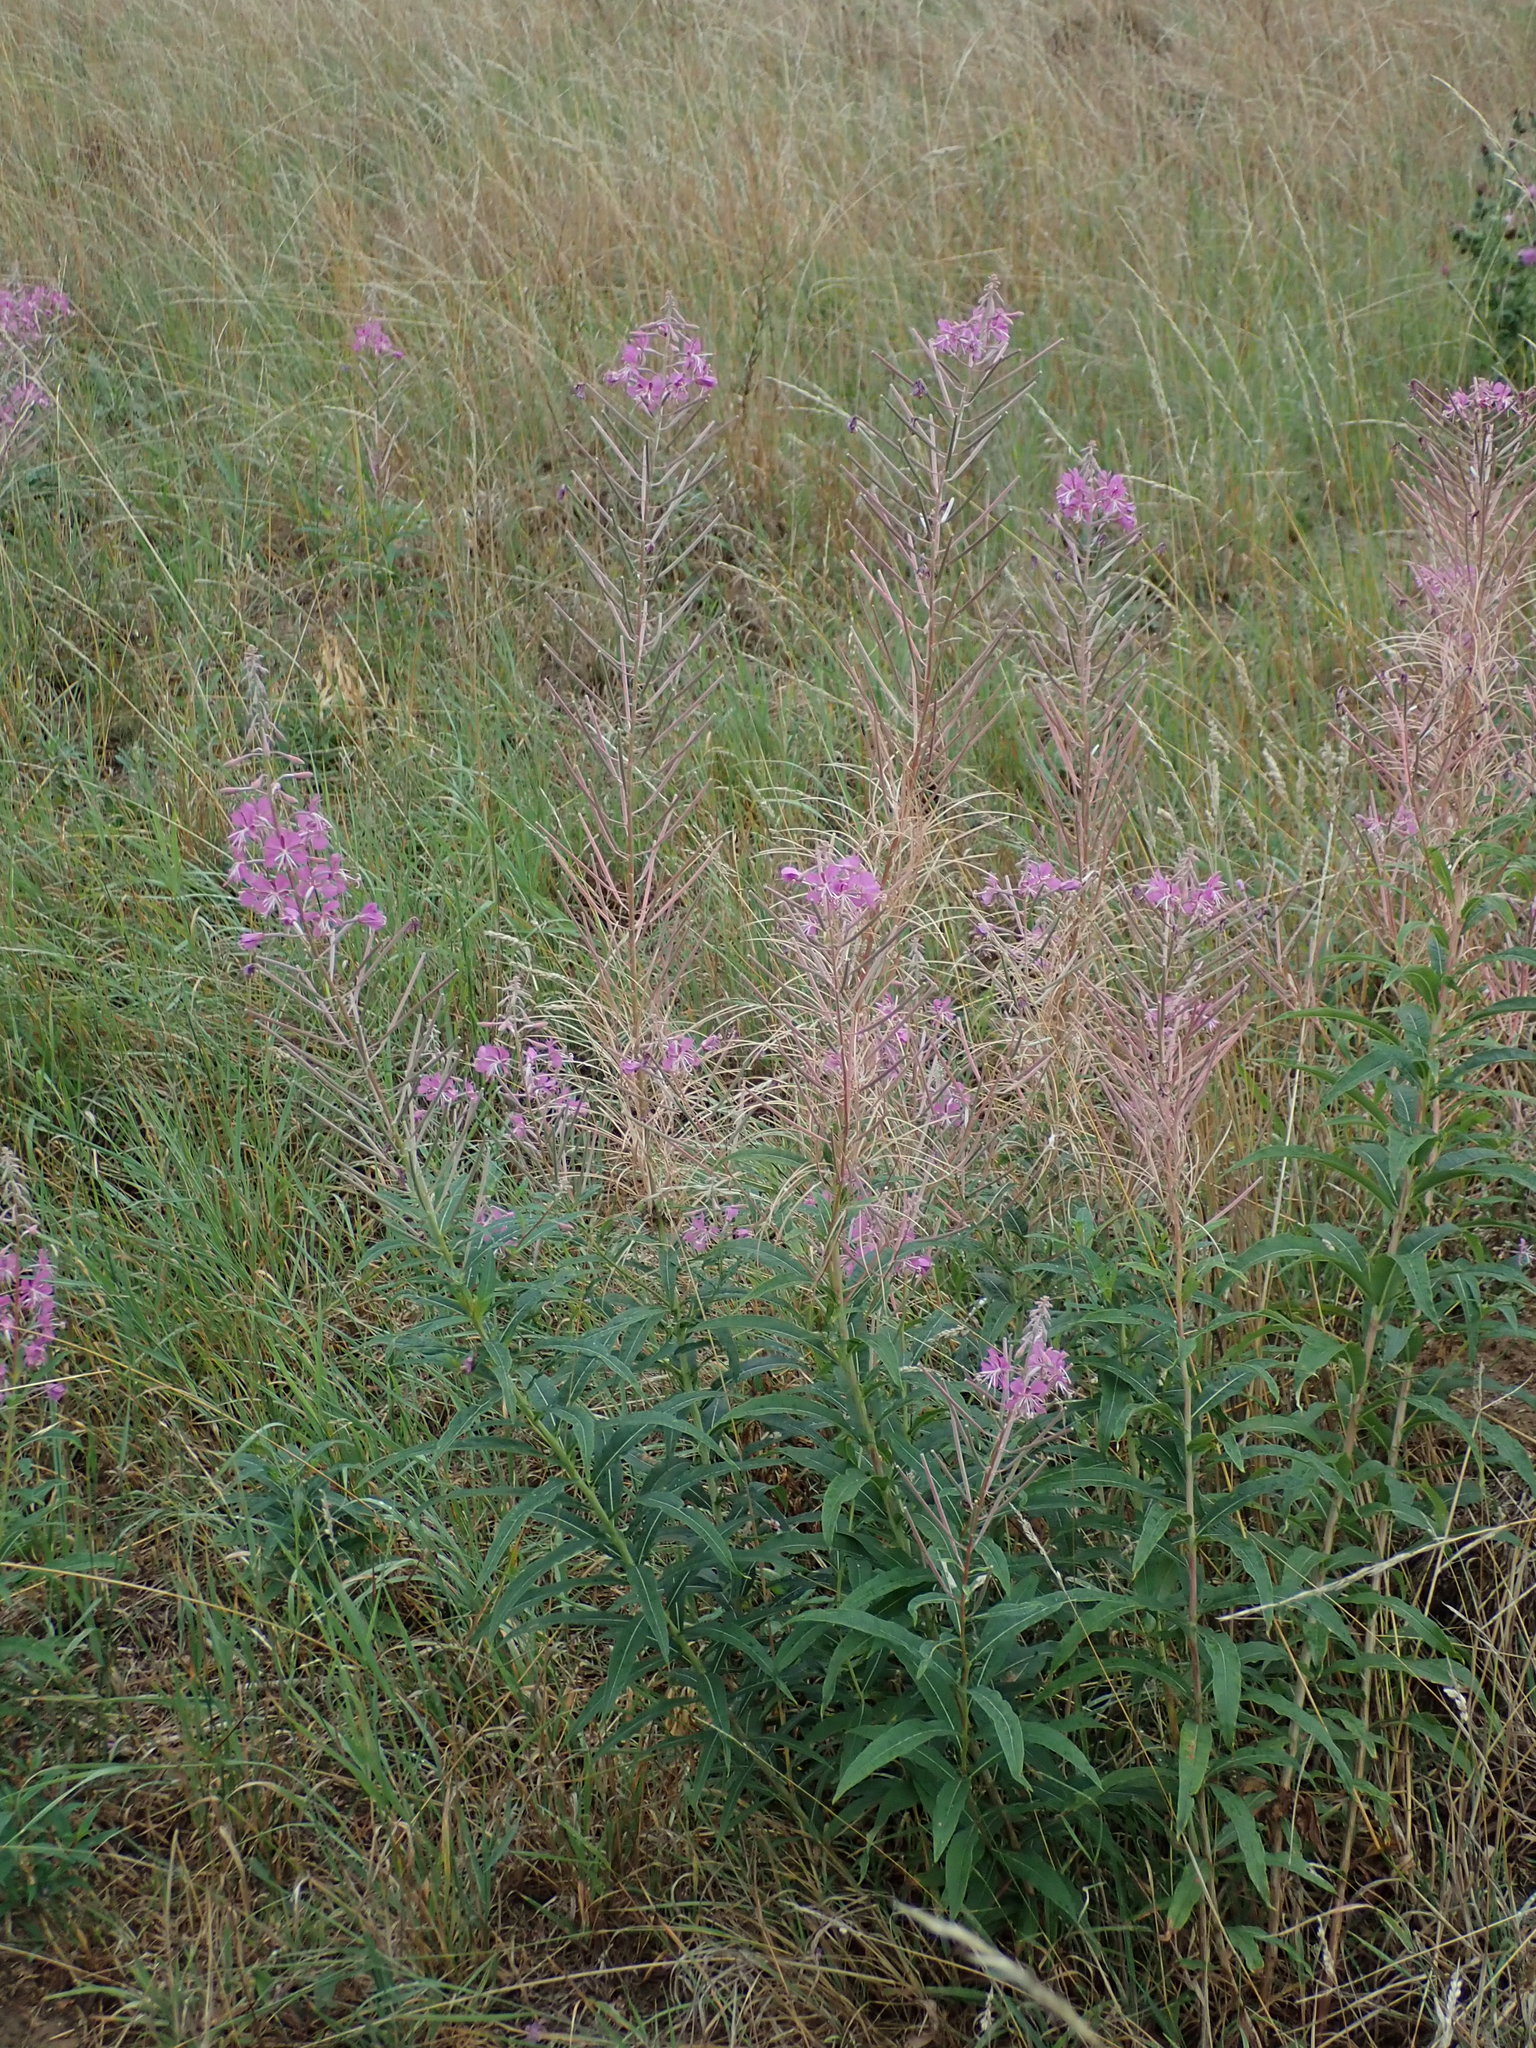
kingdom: Plantae
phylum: Tracheophyta
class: Magnoliopsida
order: Myrtales
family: Onagraceae
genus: Chamaenerion
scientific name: Chamaenerion angustifolium
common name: Fireweed
